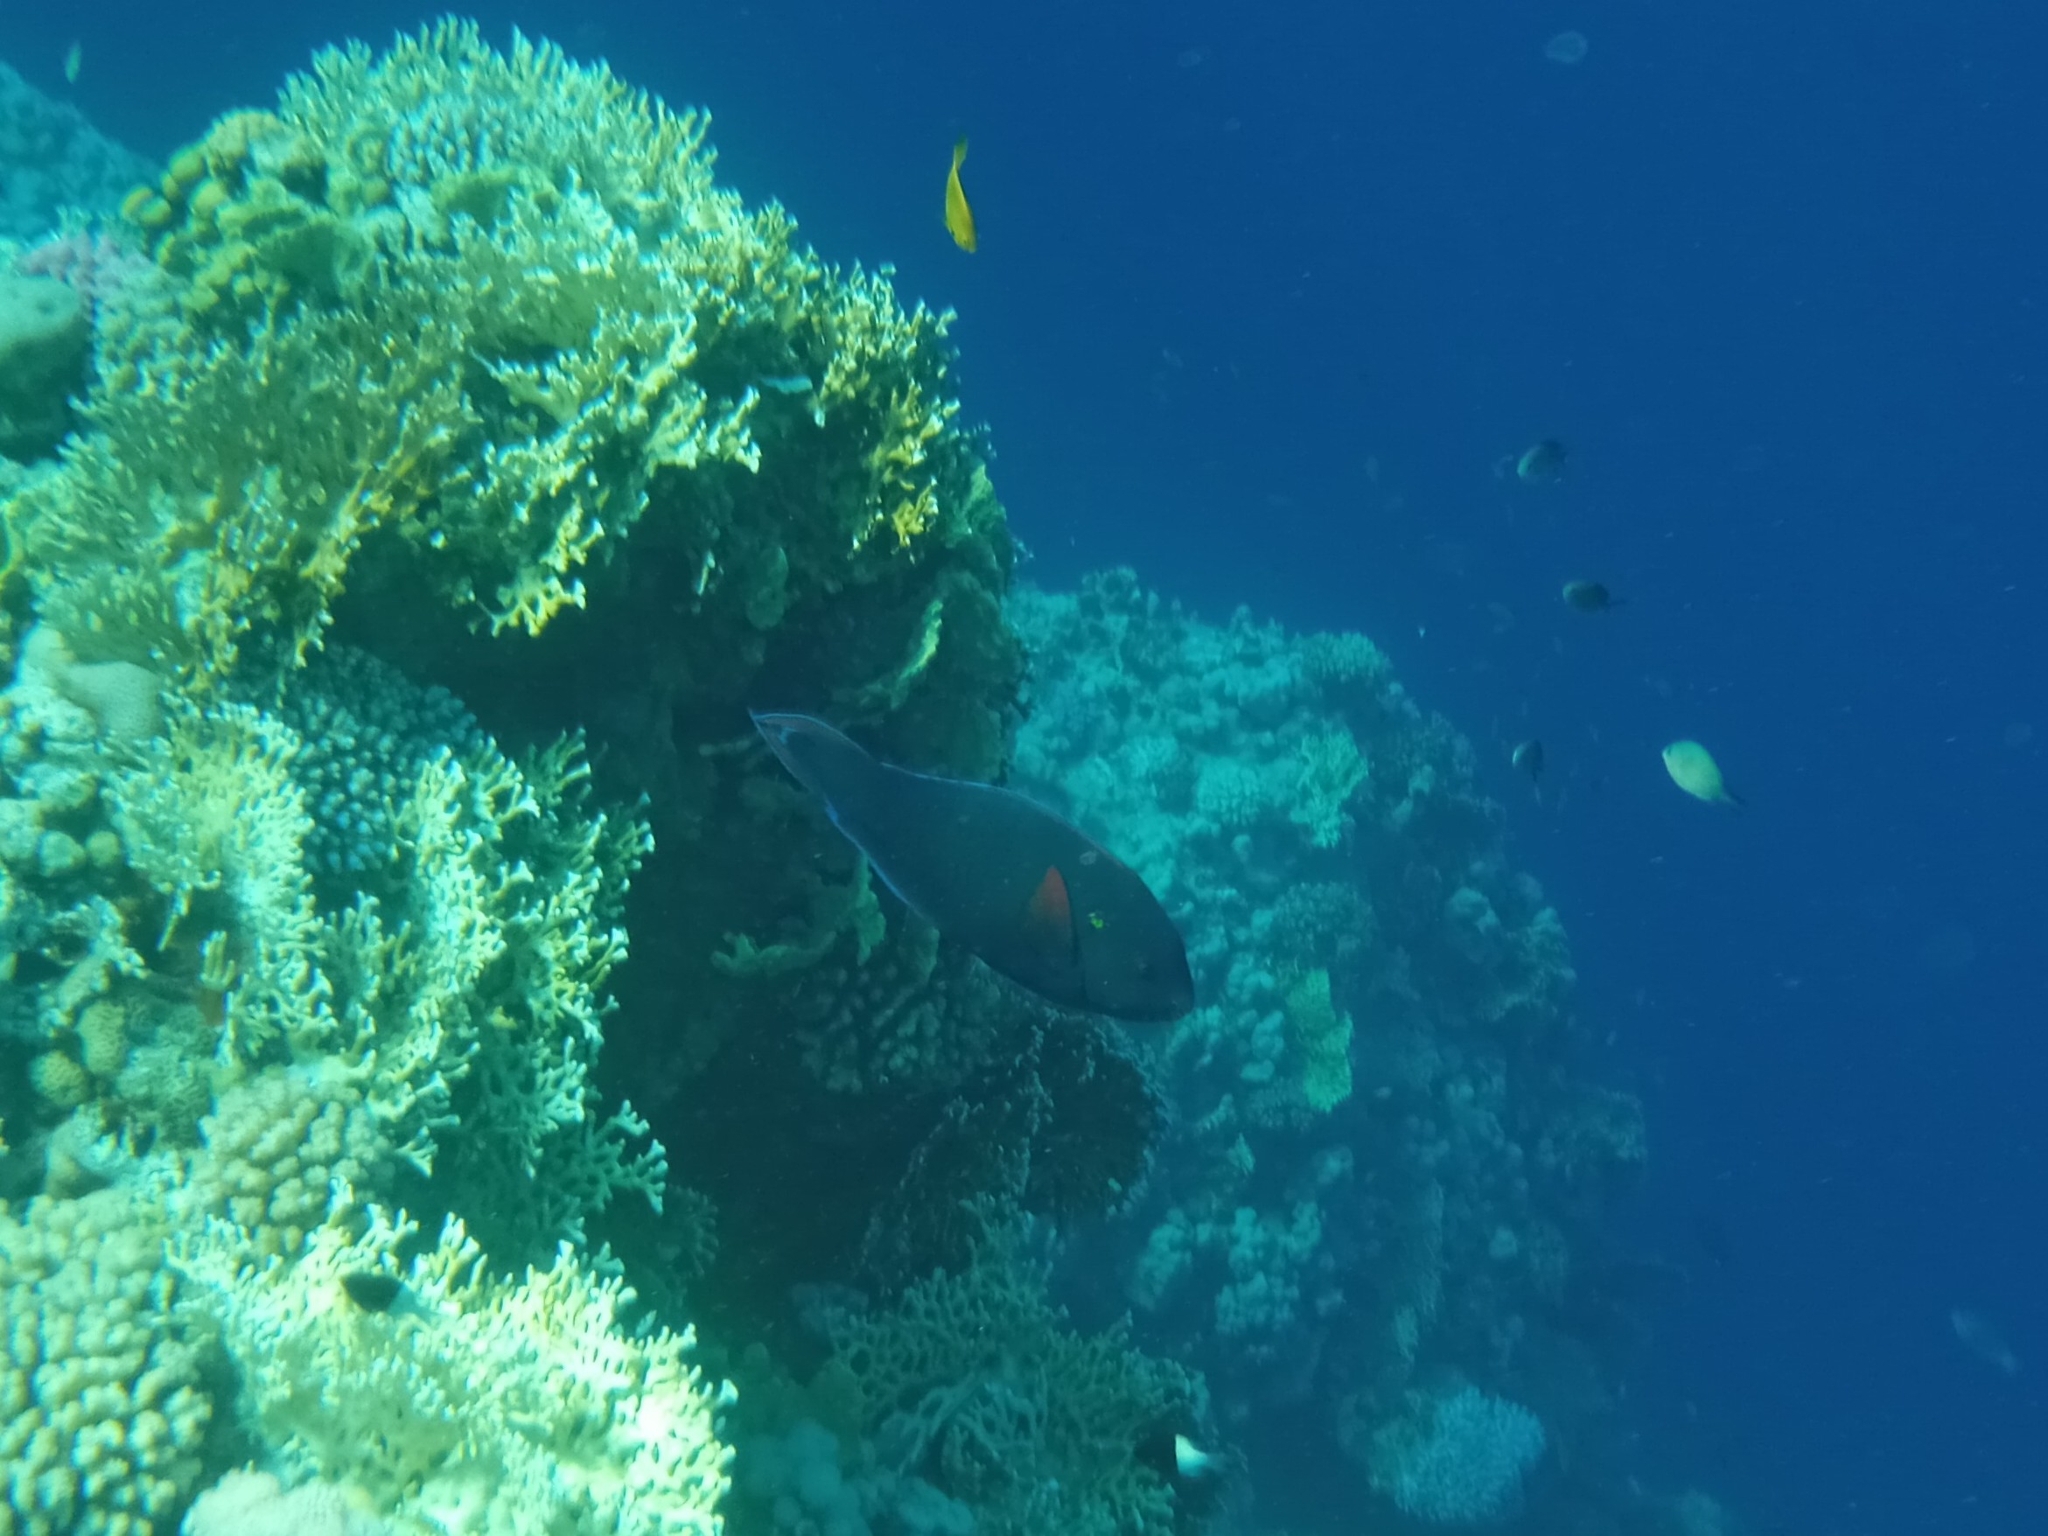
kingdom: Animalia
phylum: Chordata
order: Perciformes
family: Scaridae
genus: Scarus
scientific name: Scarus niger
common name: Dusky parrotfish
